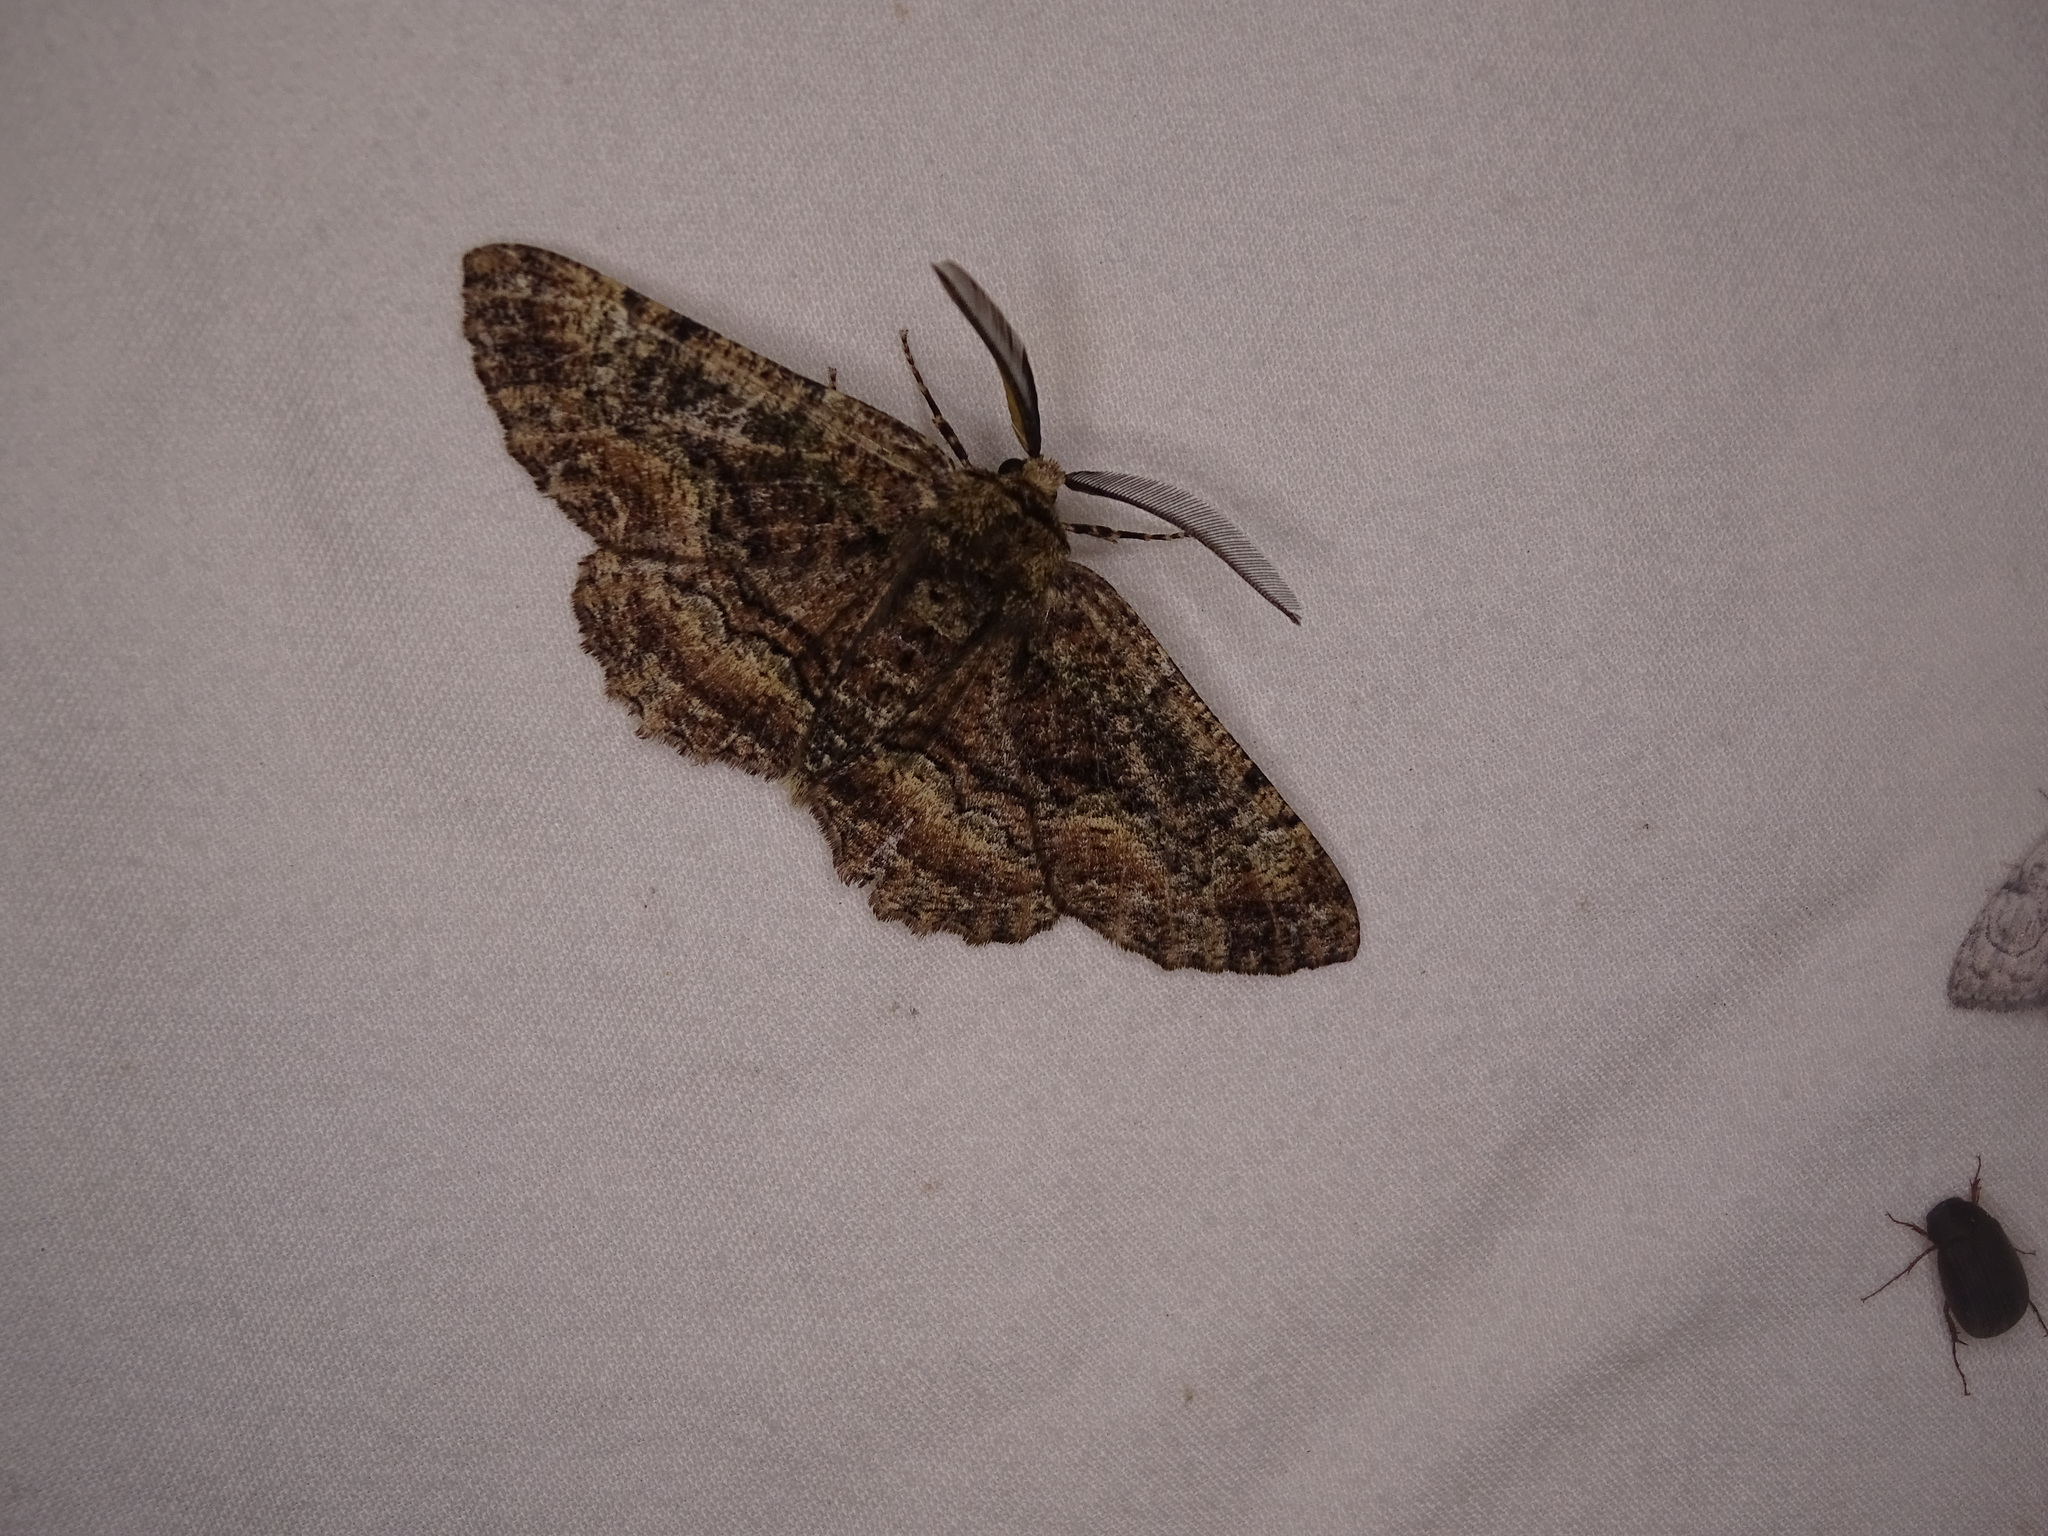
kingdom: Animalia
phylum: Arthropoda
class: Insecta
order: Lepidoptera
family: Geometridae
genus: Phaeoura
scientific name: Phaeoura quernaria
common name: Oak beauty
